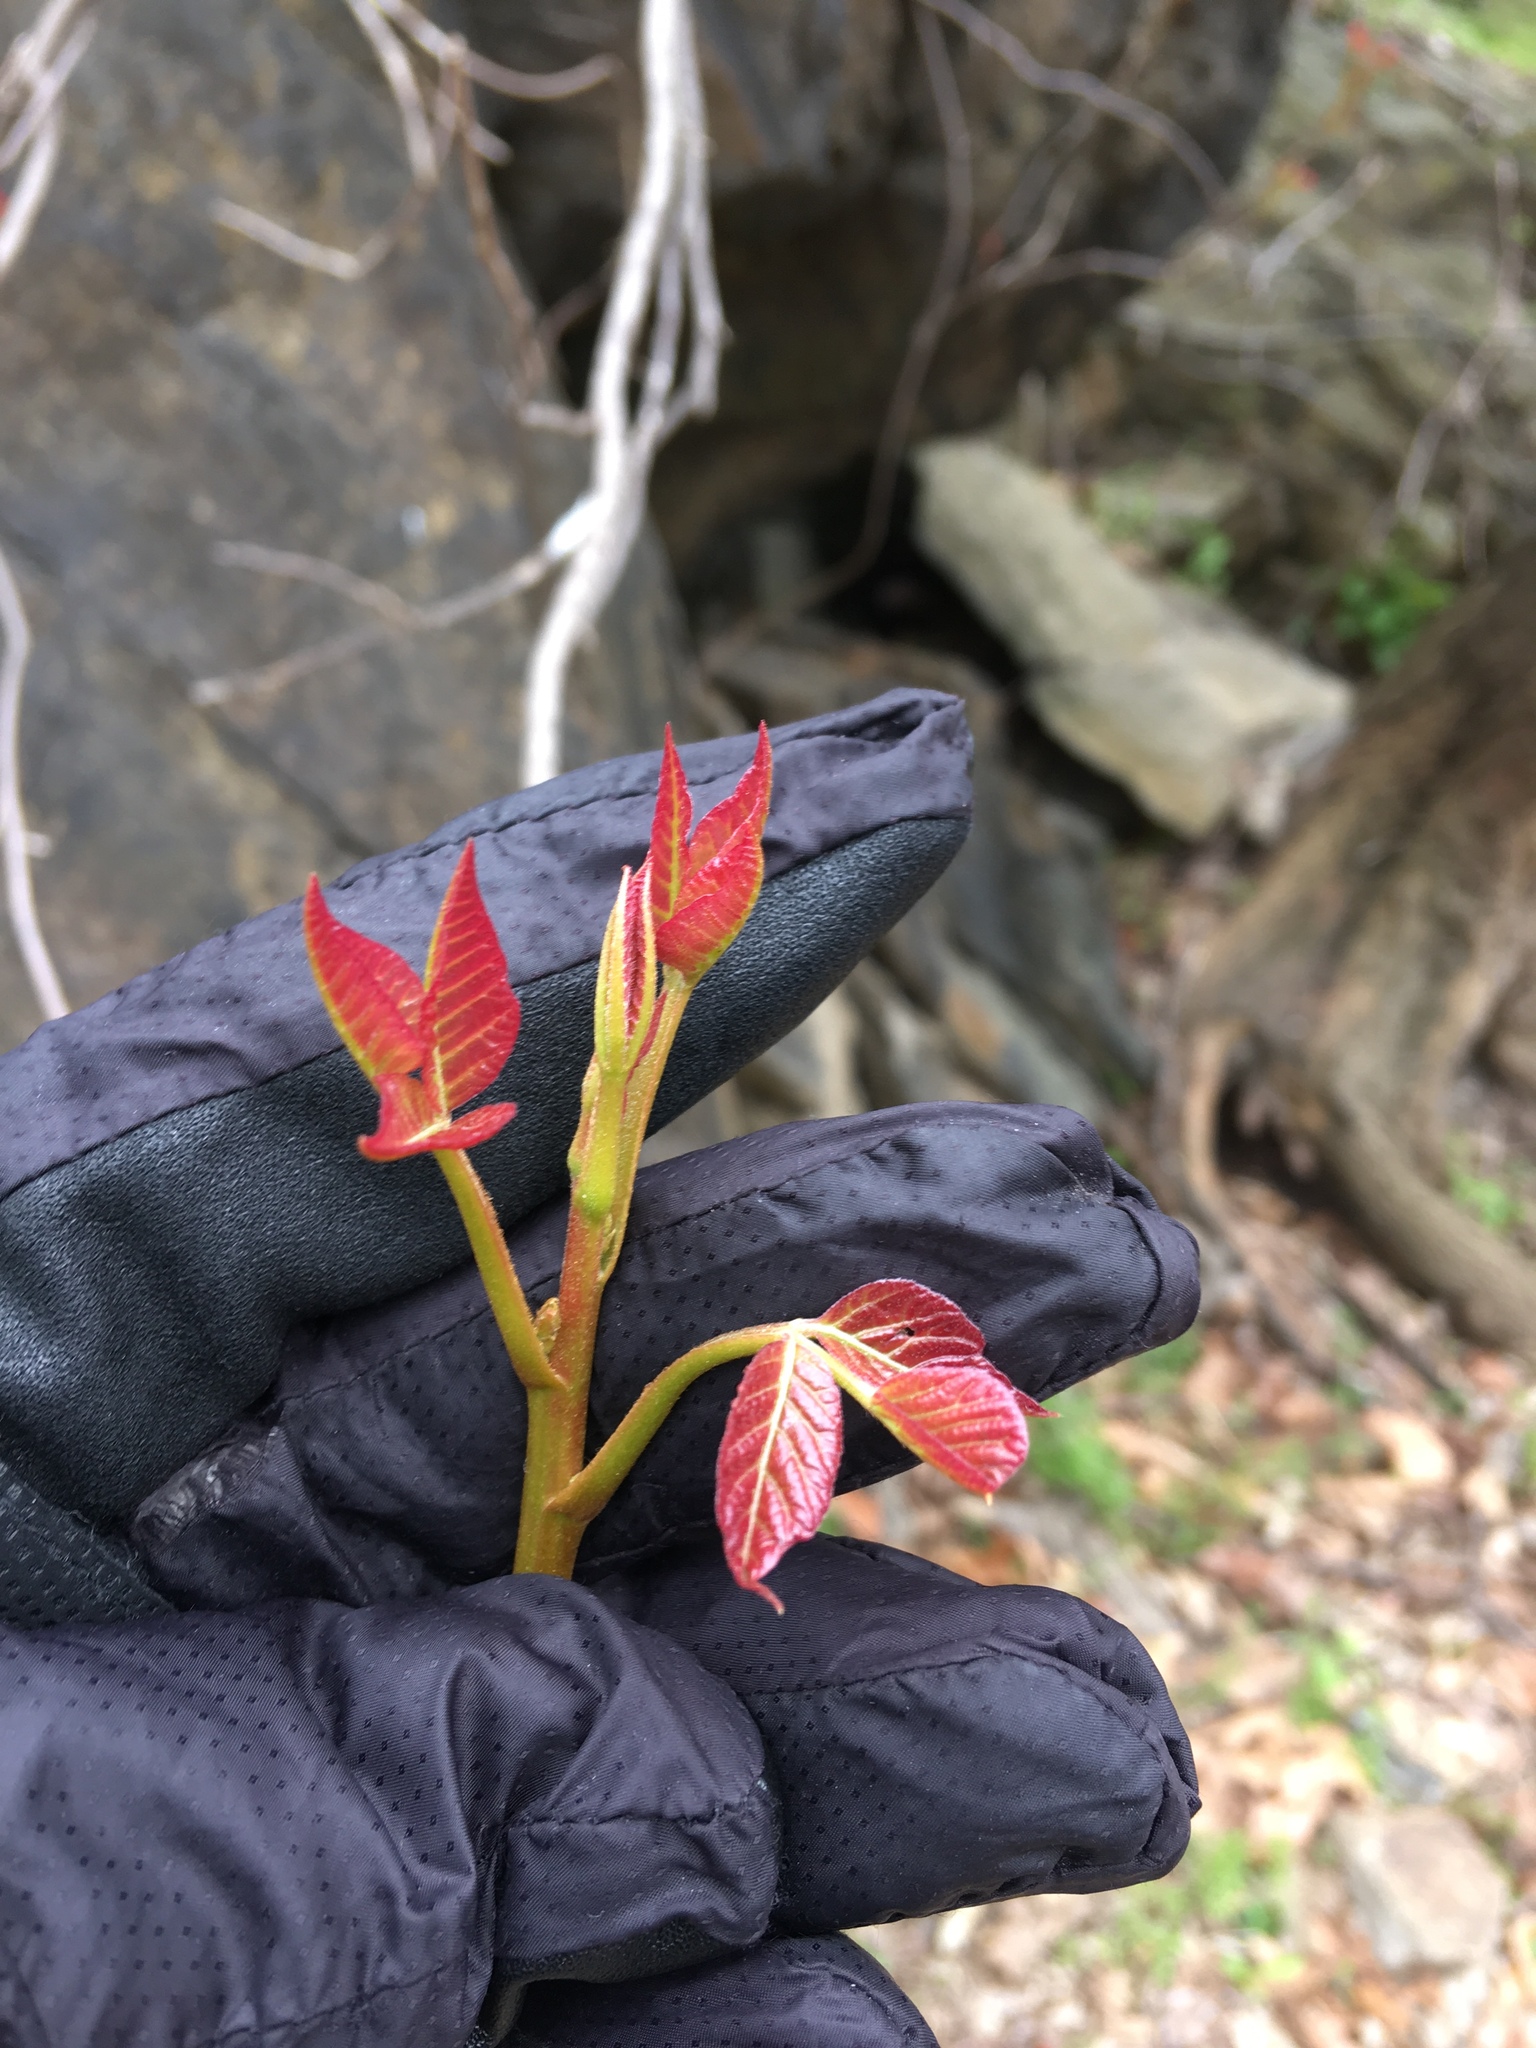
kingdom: Plantae
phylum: Tracheophyta
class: Magnoliopsida
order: Sapindales
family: Anacardiaceae
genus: Toxicodendron
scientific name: Toxicodendron radicans
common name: Poison ivy
